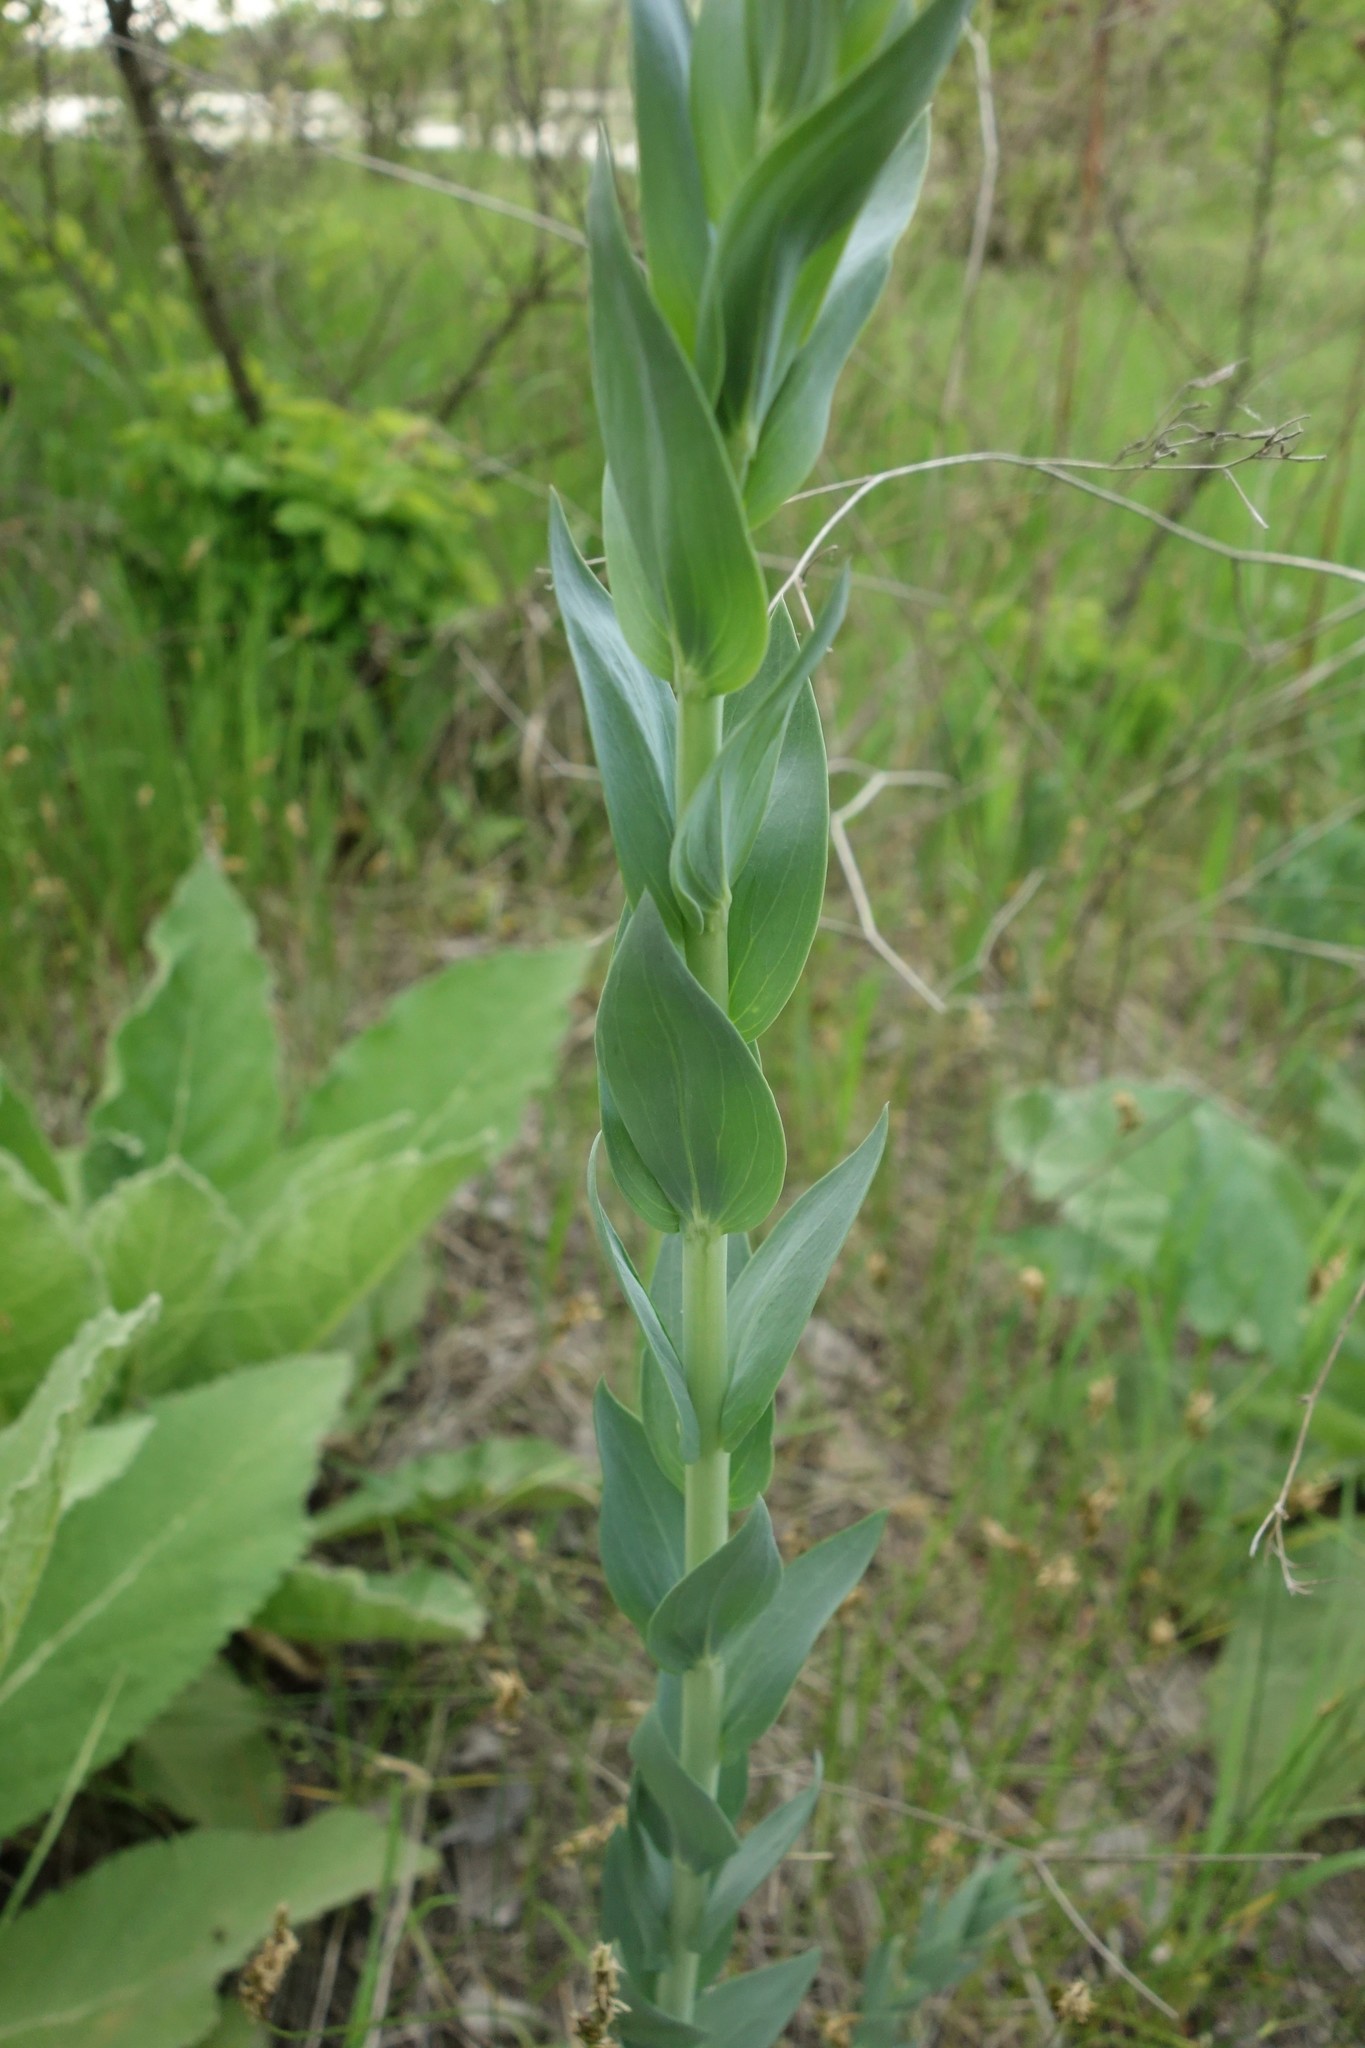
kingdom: Plantae
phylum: Tracheophyta
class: Magnoliopsida
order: Lamiales
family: Plantaginaceae
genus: Linaria
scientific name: Linaria genistifolia
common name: Broomleaf toadflax
